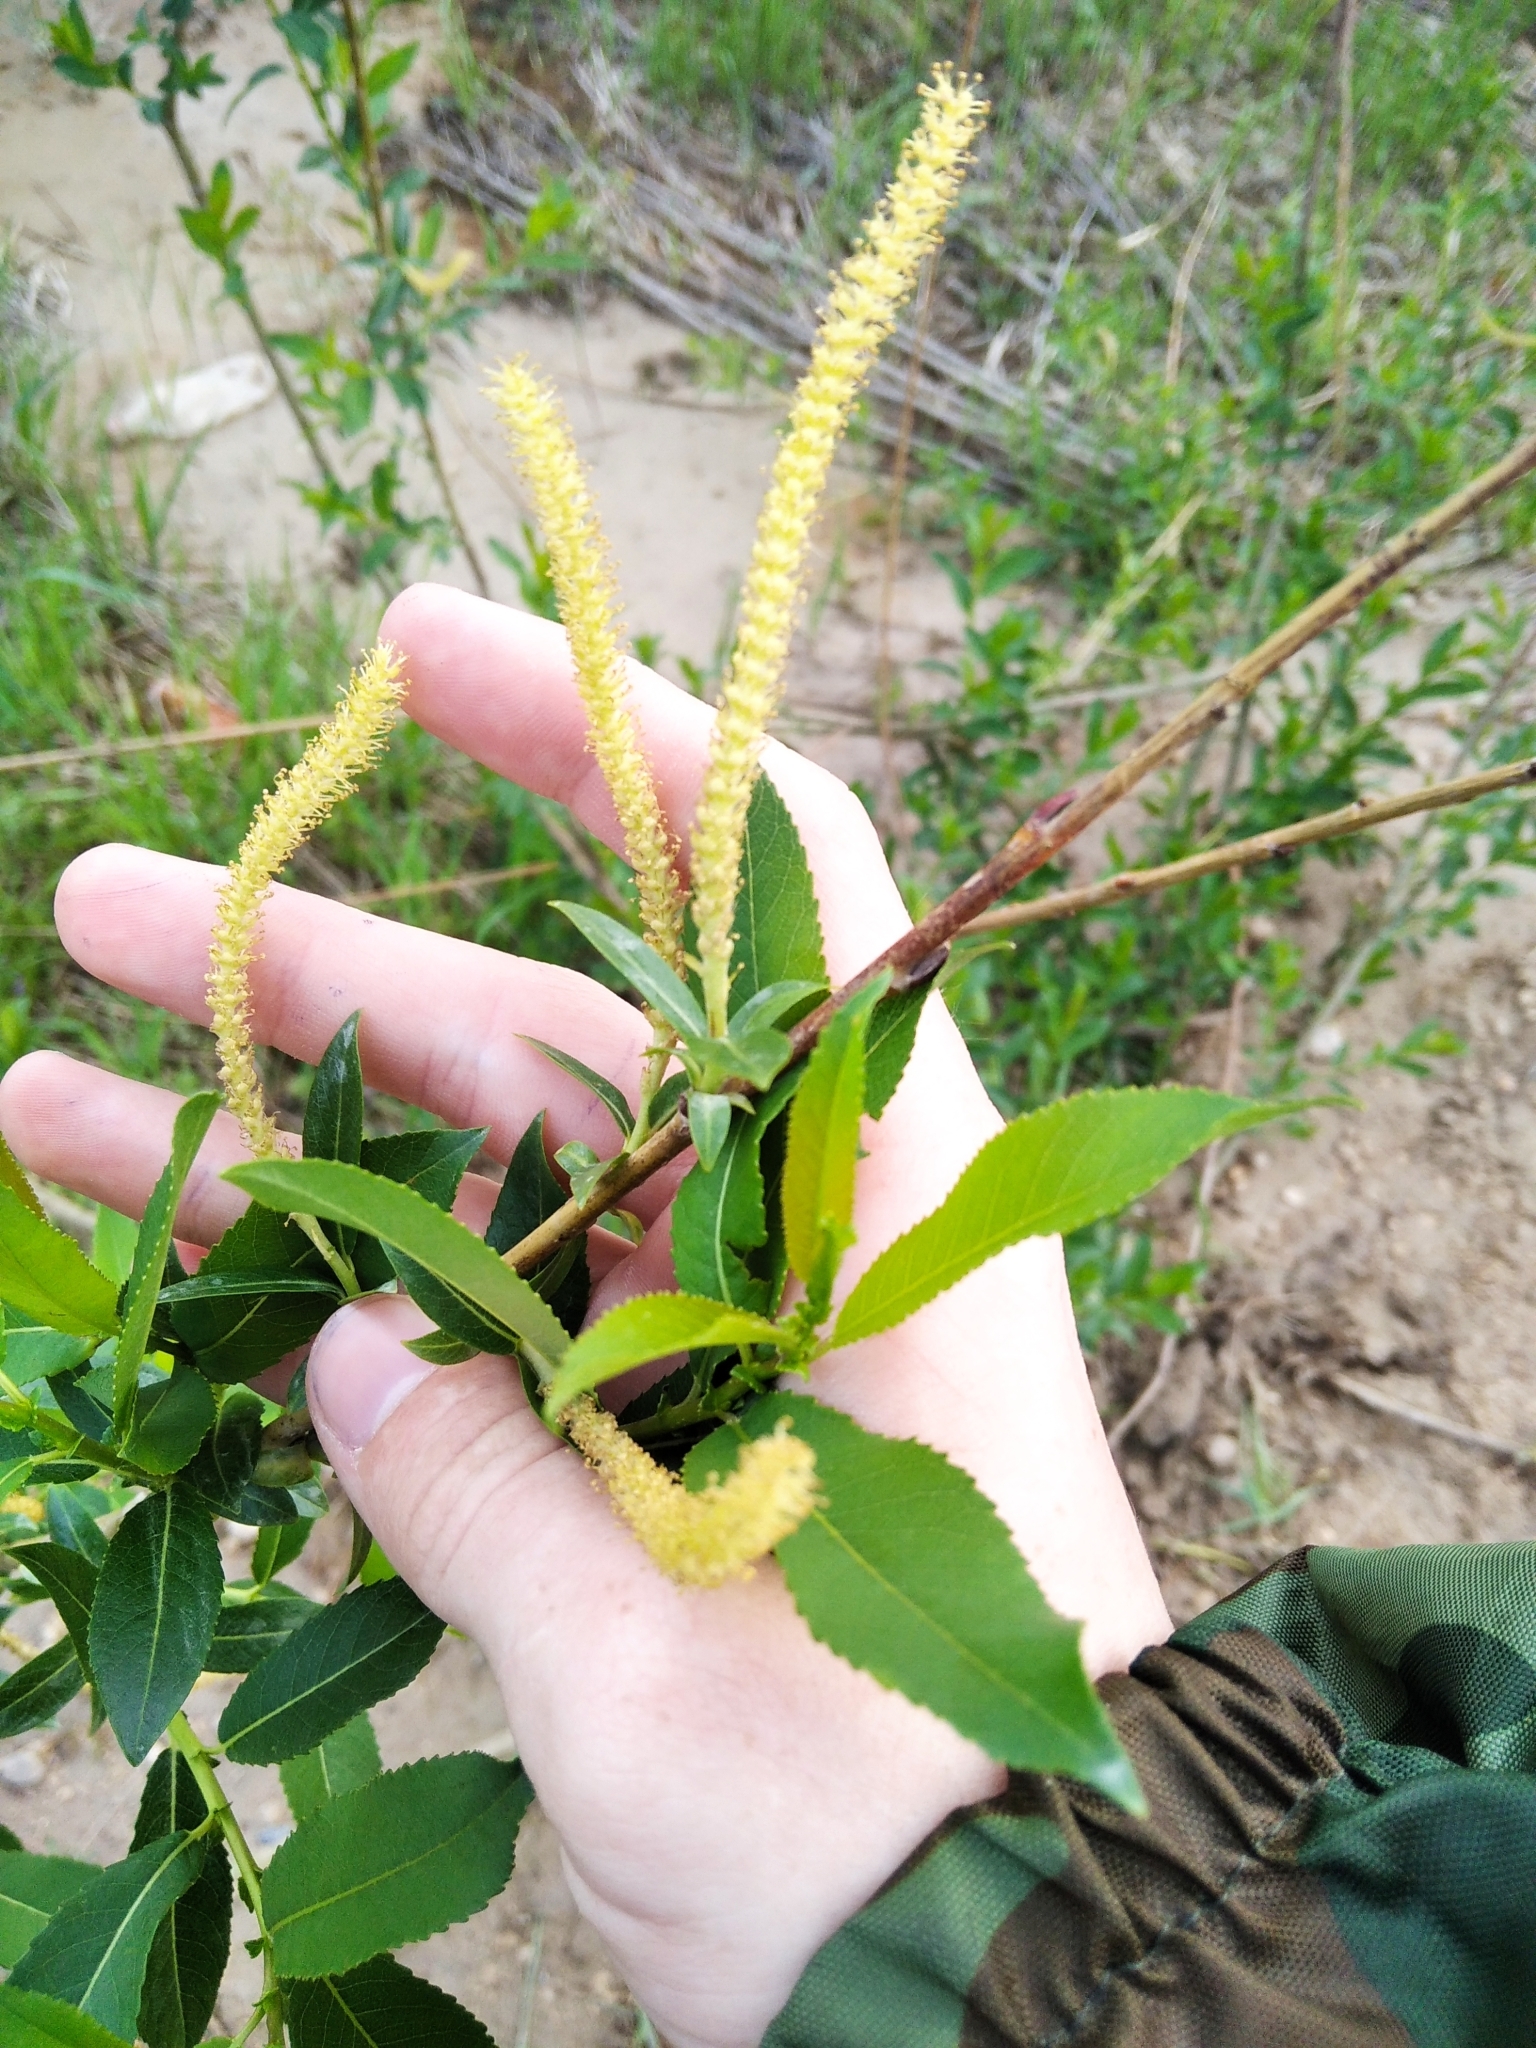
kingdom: Plantae
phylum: Tracheophyta
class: Magnoliopsida
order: Malpighiales
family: Salicaceae
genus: Salix
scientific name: Salix triandra
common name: Almond willow
